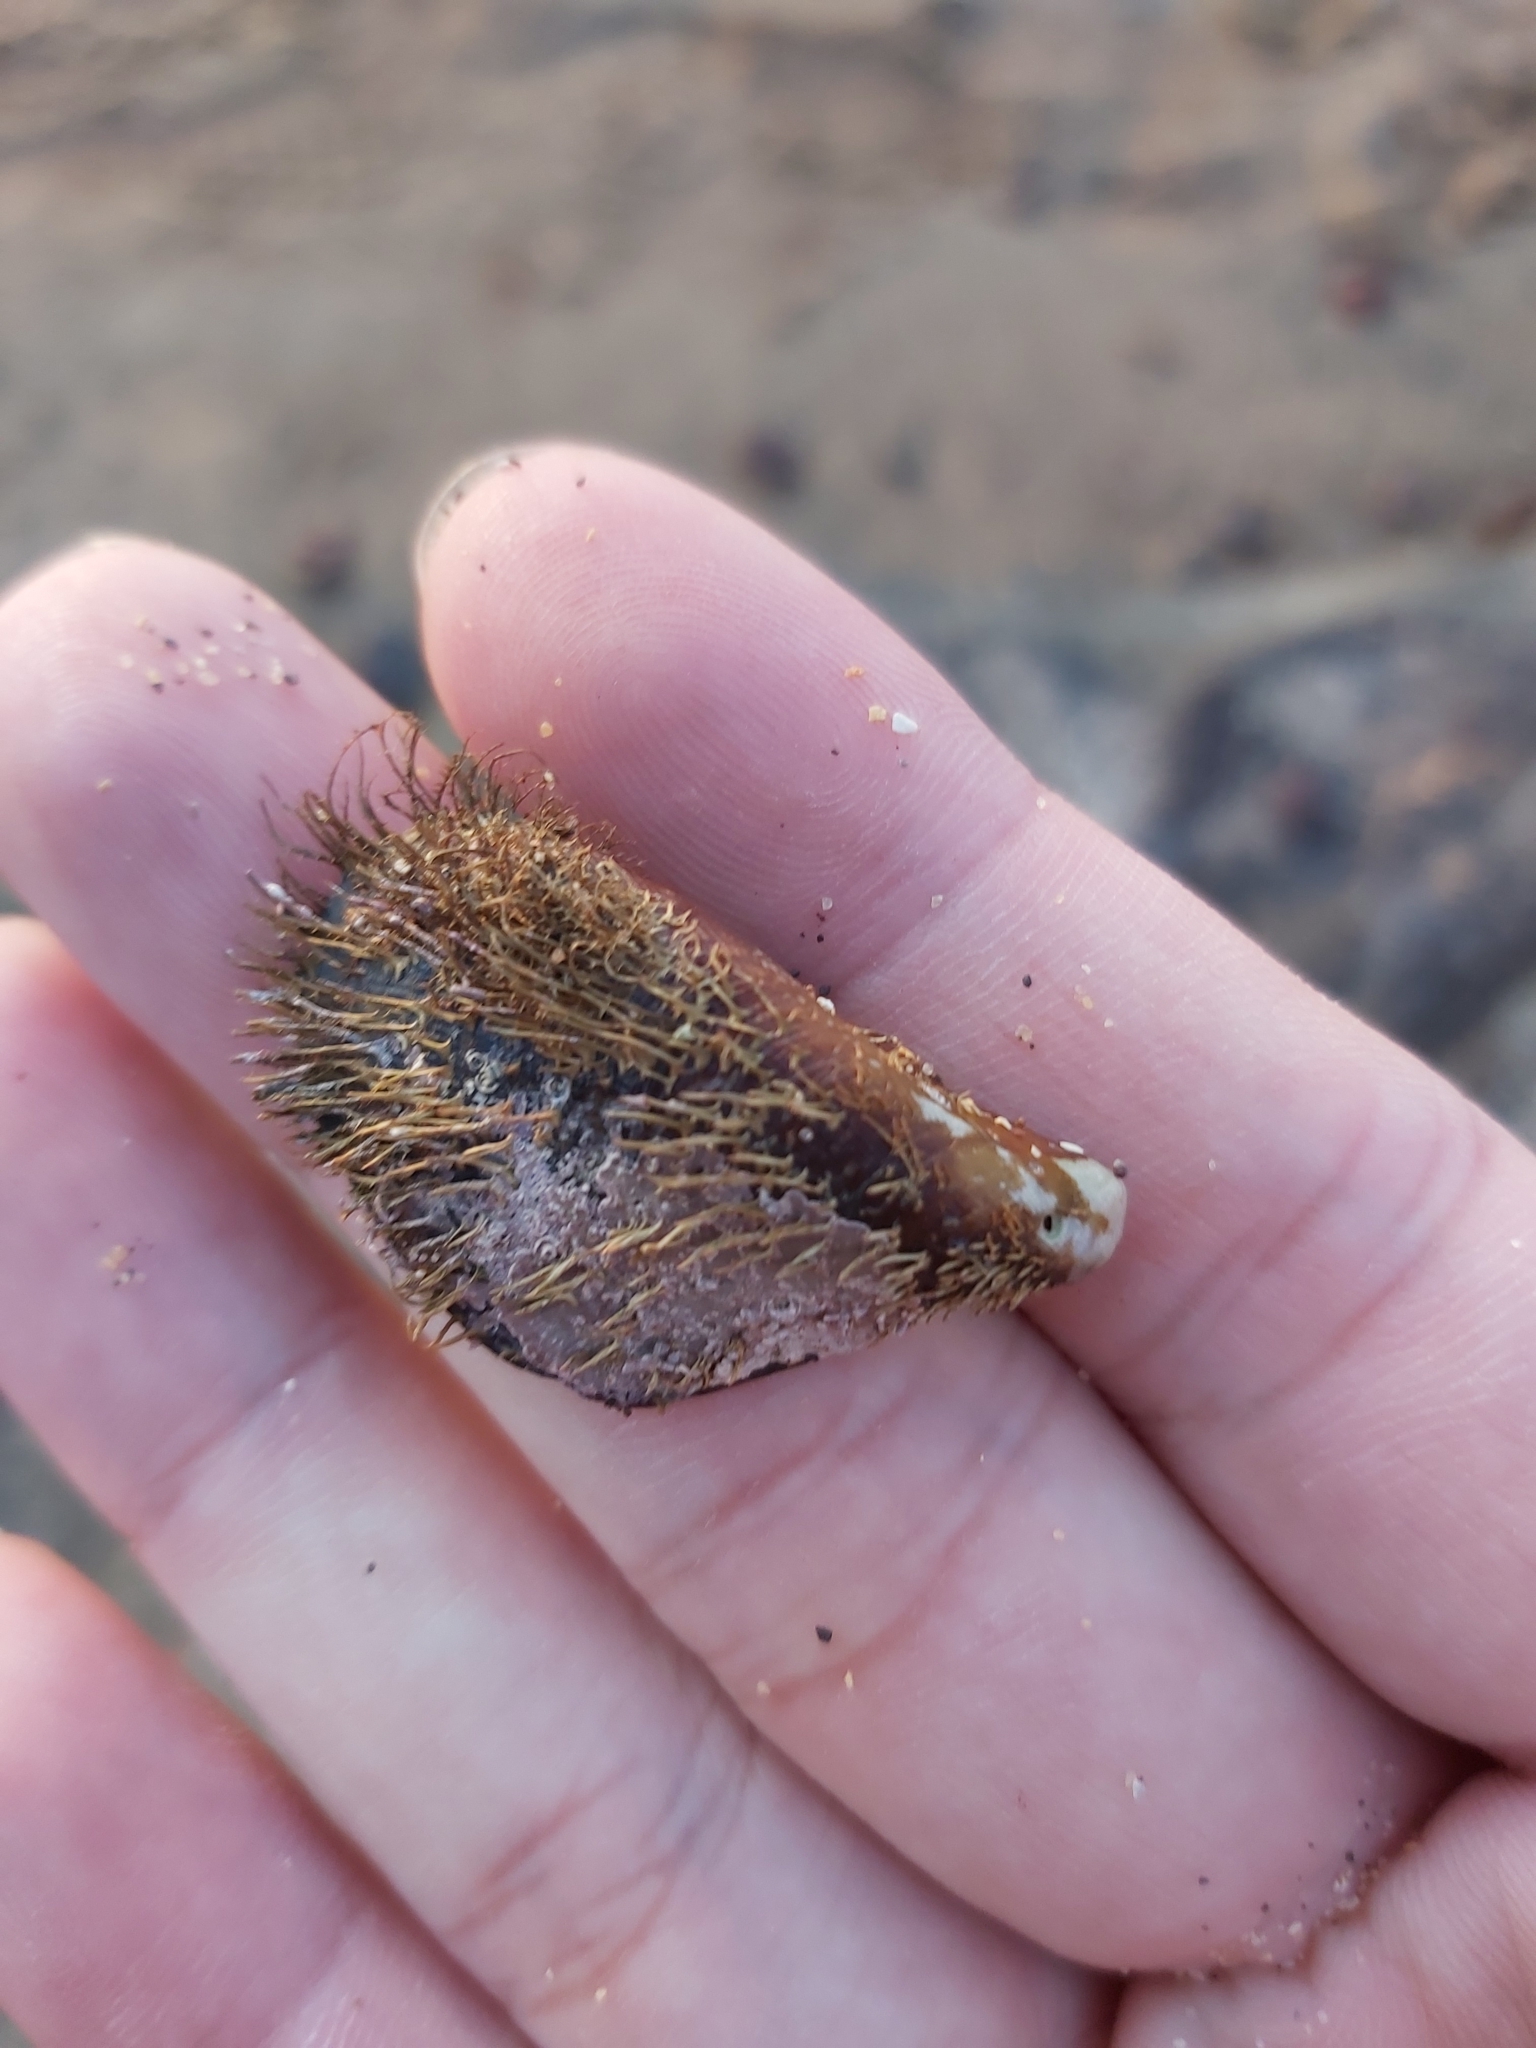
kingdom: Animalia
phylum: Mollusca
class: Bivalvia
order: Mytilida
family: Mytilidae
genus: Trichomya
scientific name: Trichomya hirsuta
